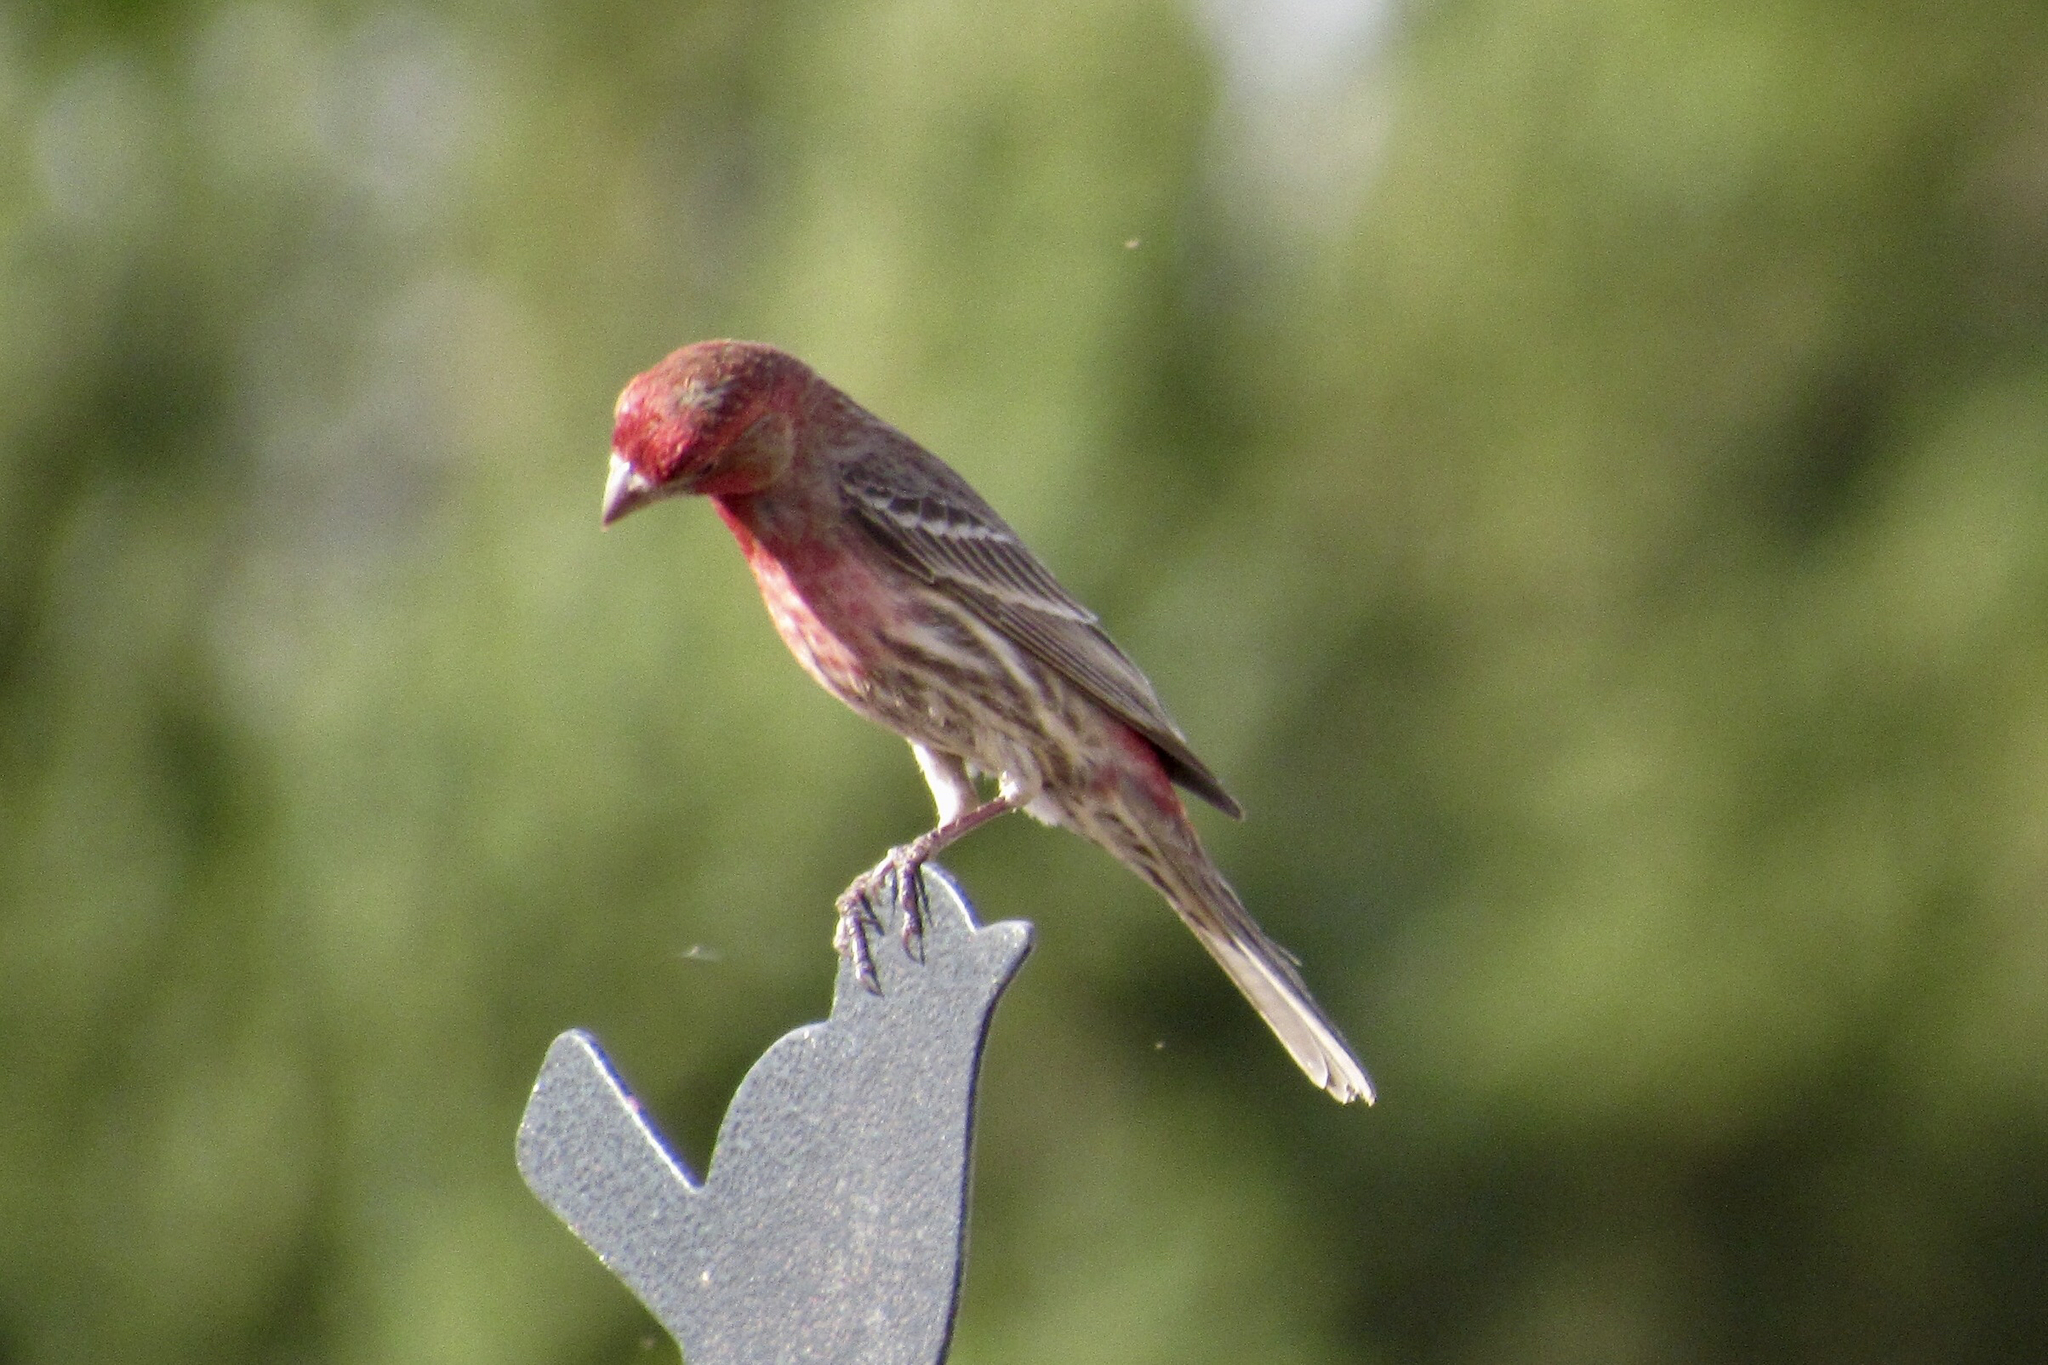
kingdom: Animalia
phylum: Chordata
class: Aves
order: Passeriformes
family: Fringillidae
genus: Haemorhous
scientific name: Haemorhous mexicanus
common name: House finch
